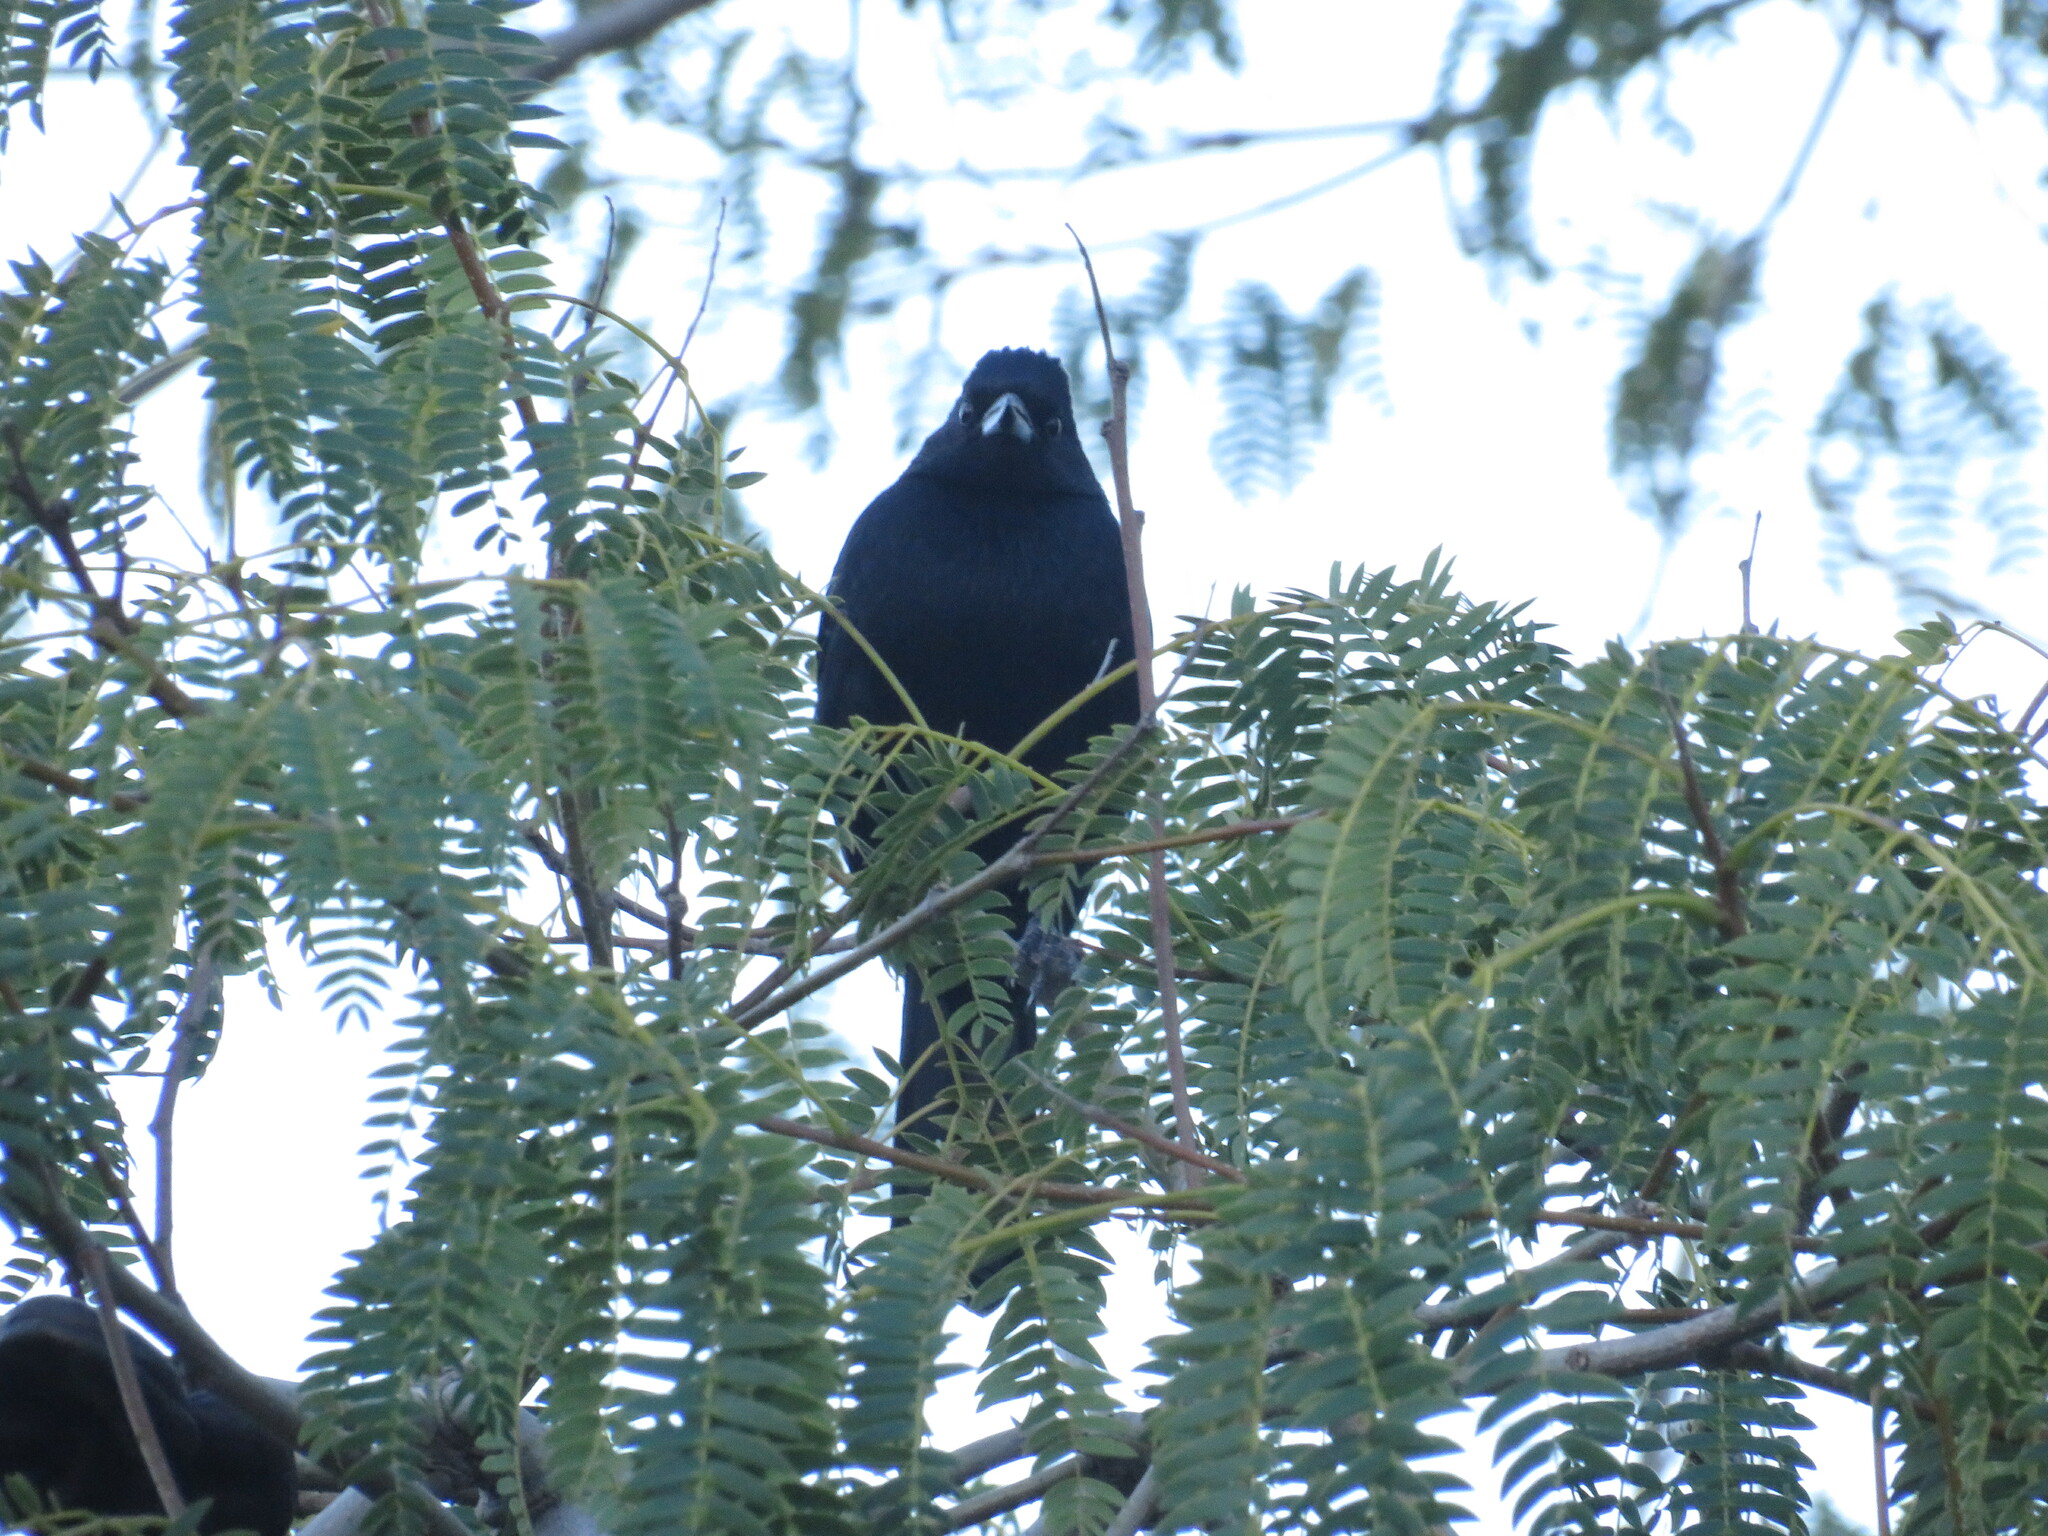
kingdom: Animalia
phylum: Chordata
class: Aves
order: Passeriformes
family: Thraupidae
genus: Tachyphonus
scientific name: Tachyphonus rufus
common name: White-lined tanager
